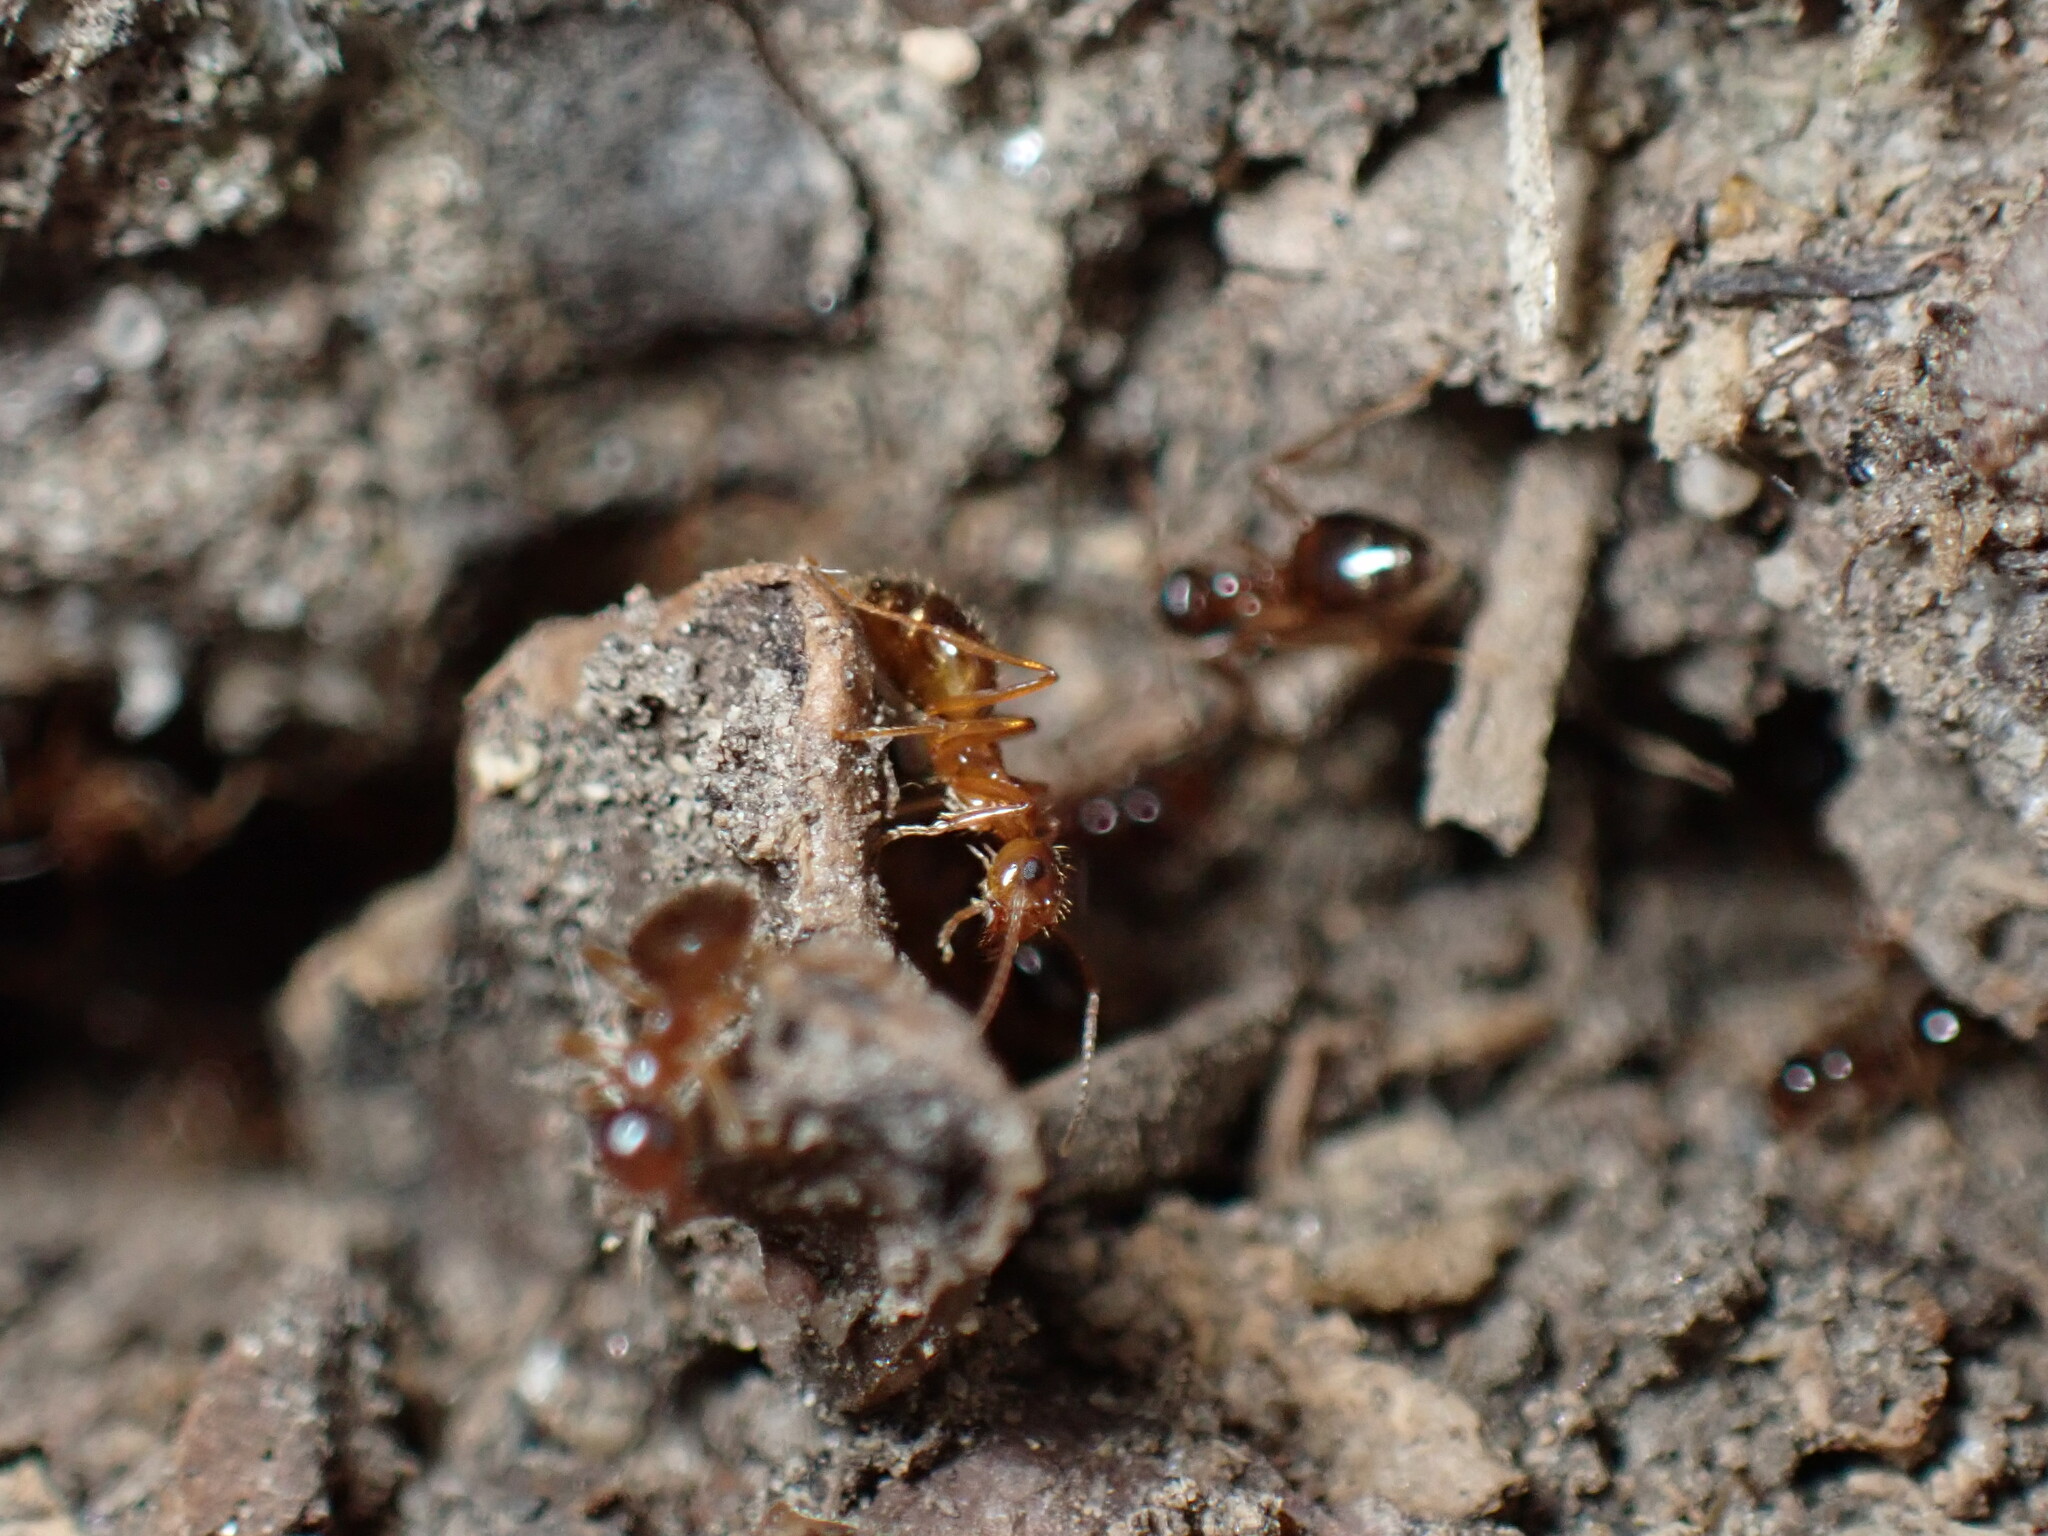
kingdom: Animalia
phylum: Arthropoda
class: Insecta
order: Hymenoptera
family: Formicidae
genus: Prenolepis
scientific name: Prenolepis imparis
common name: Small honey ant
